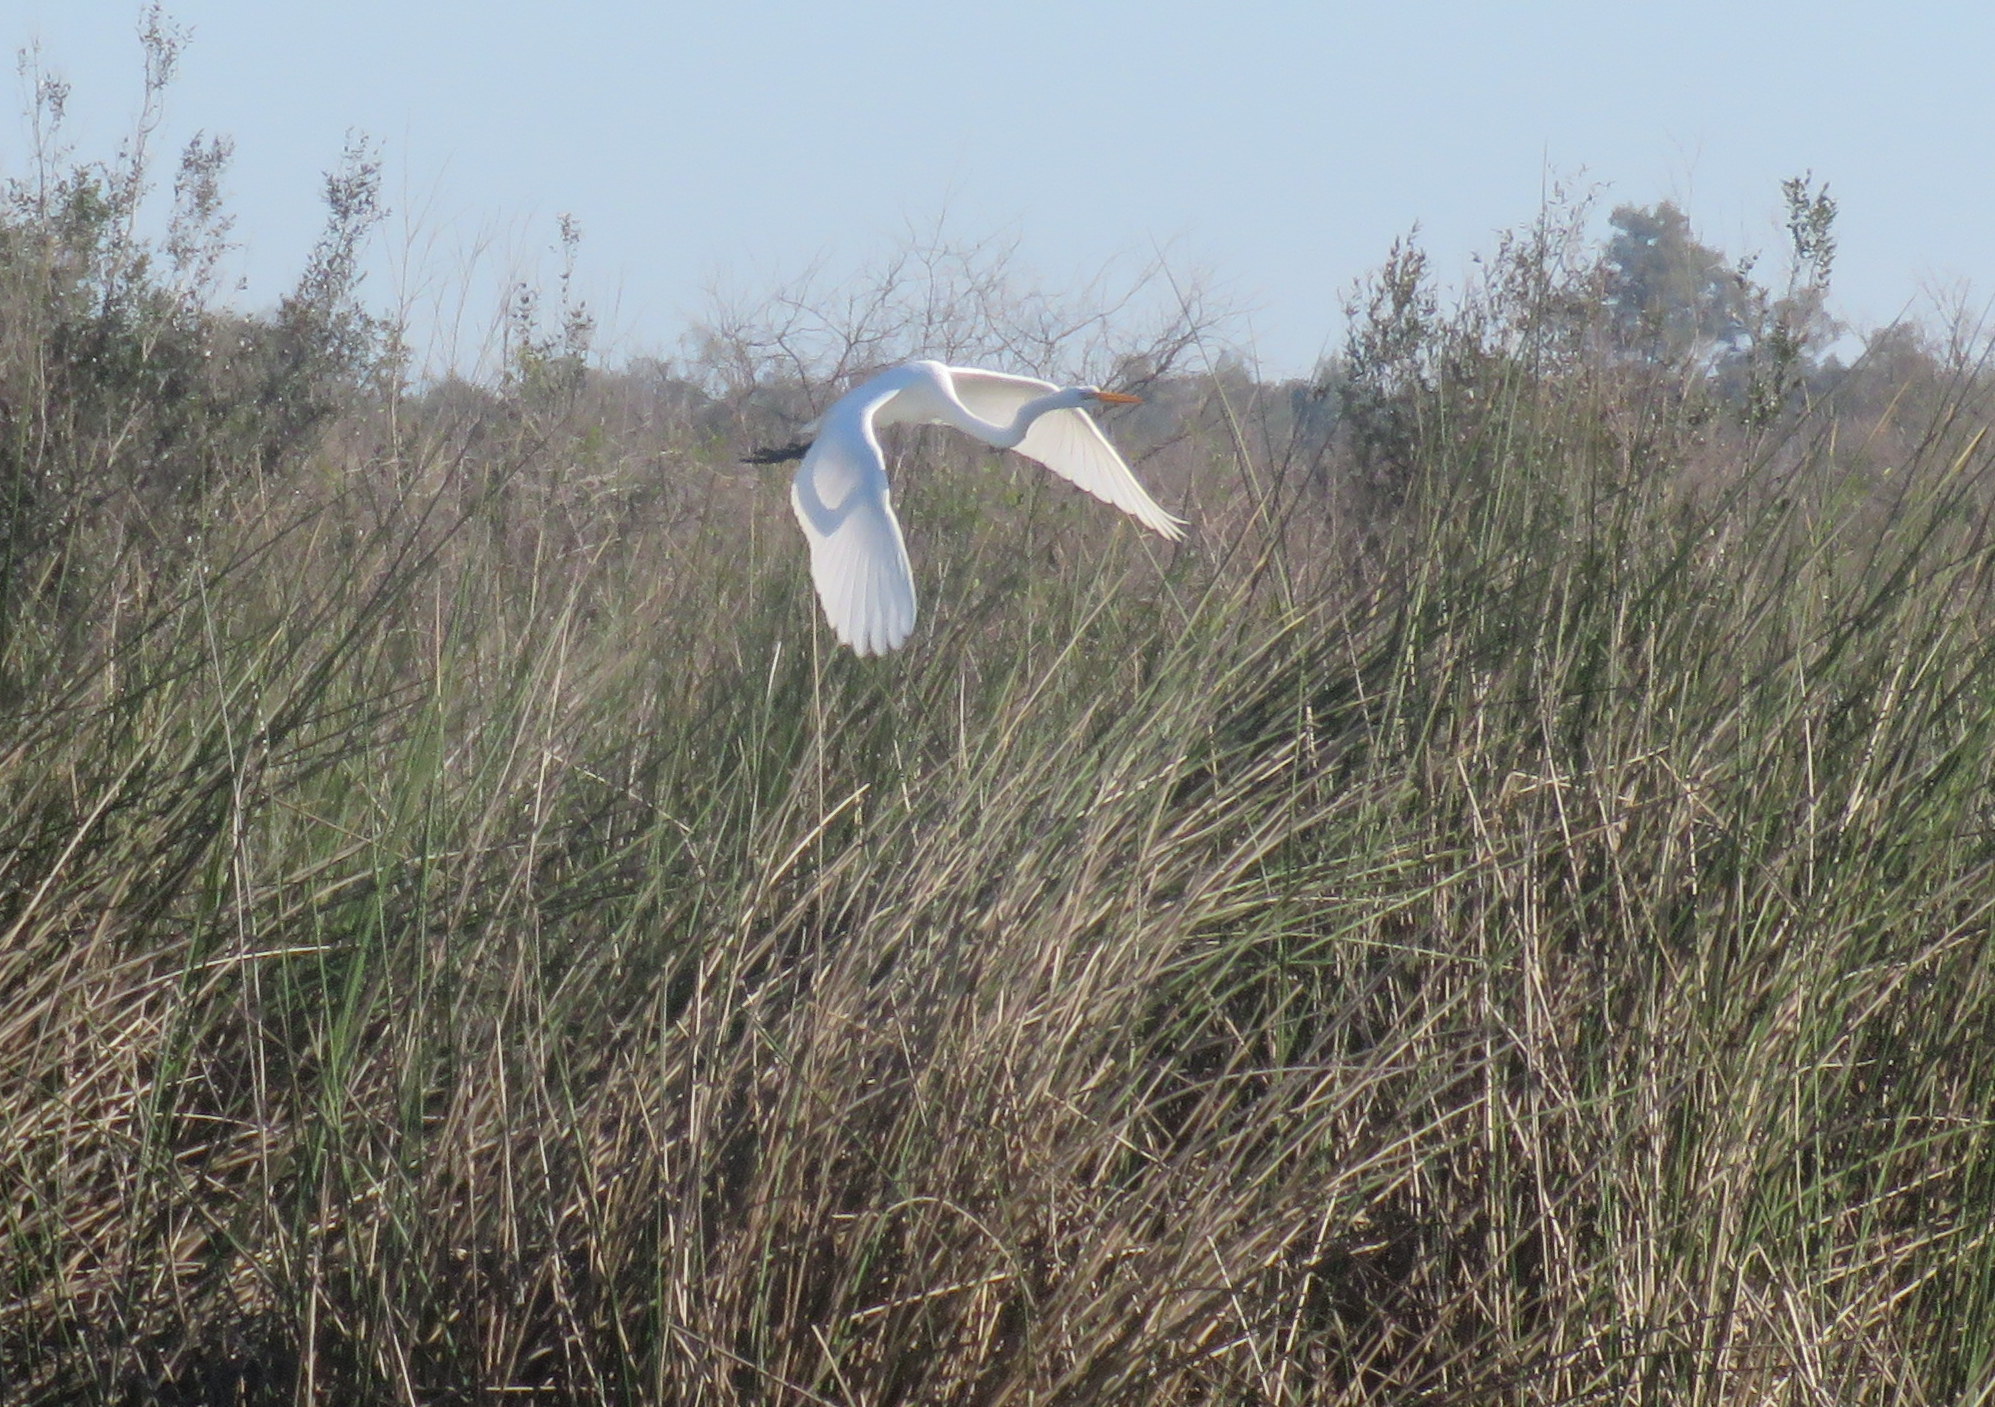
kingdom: Animalia
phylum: Chordata
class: Aves
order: Pelecaniformes
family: Ardeidae
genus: Ardea
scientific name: Ardea alba
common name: Great egret
